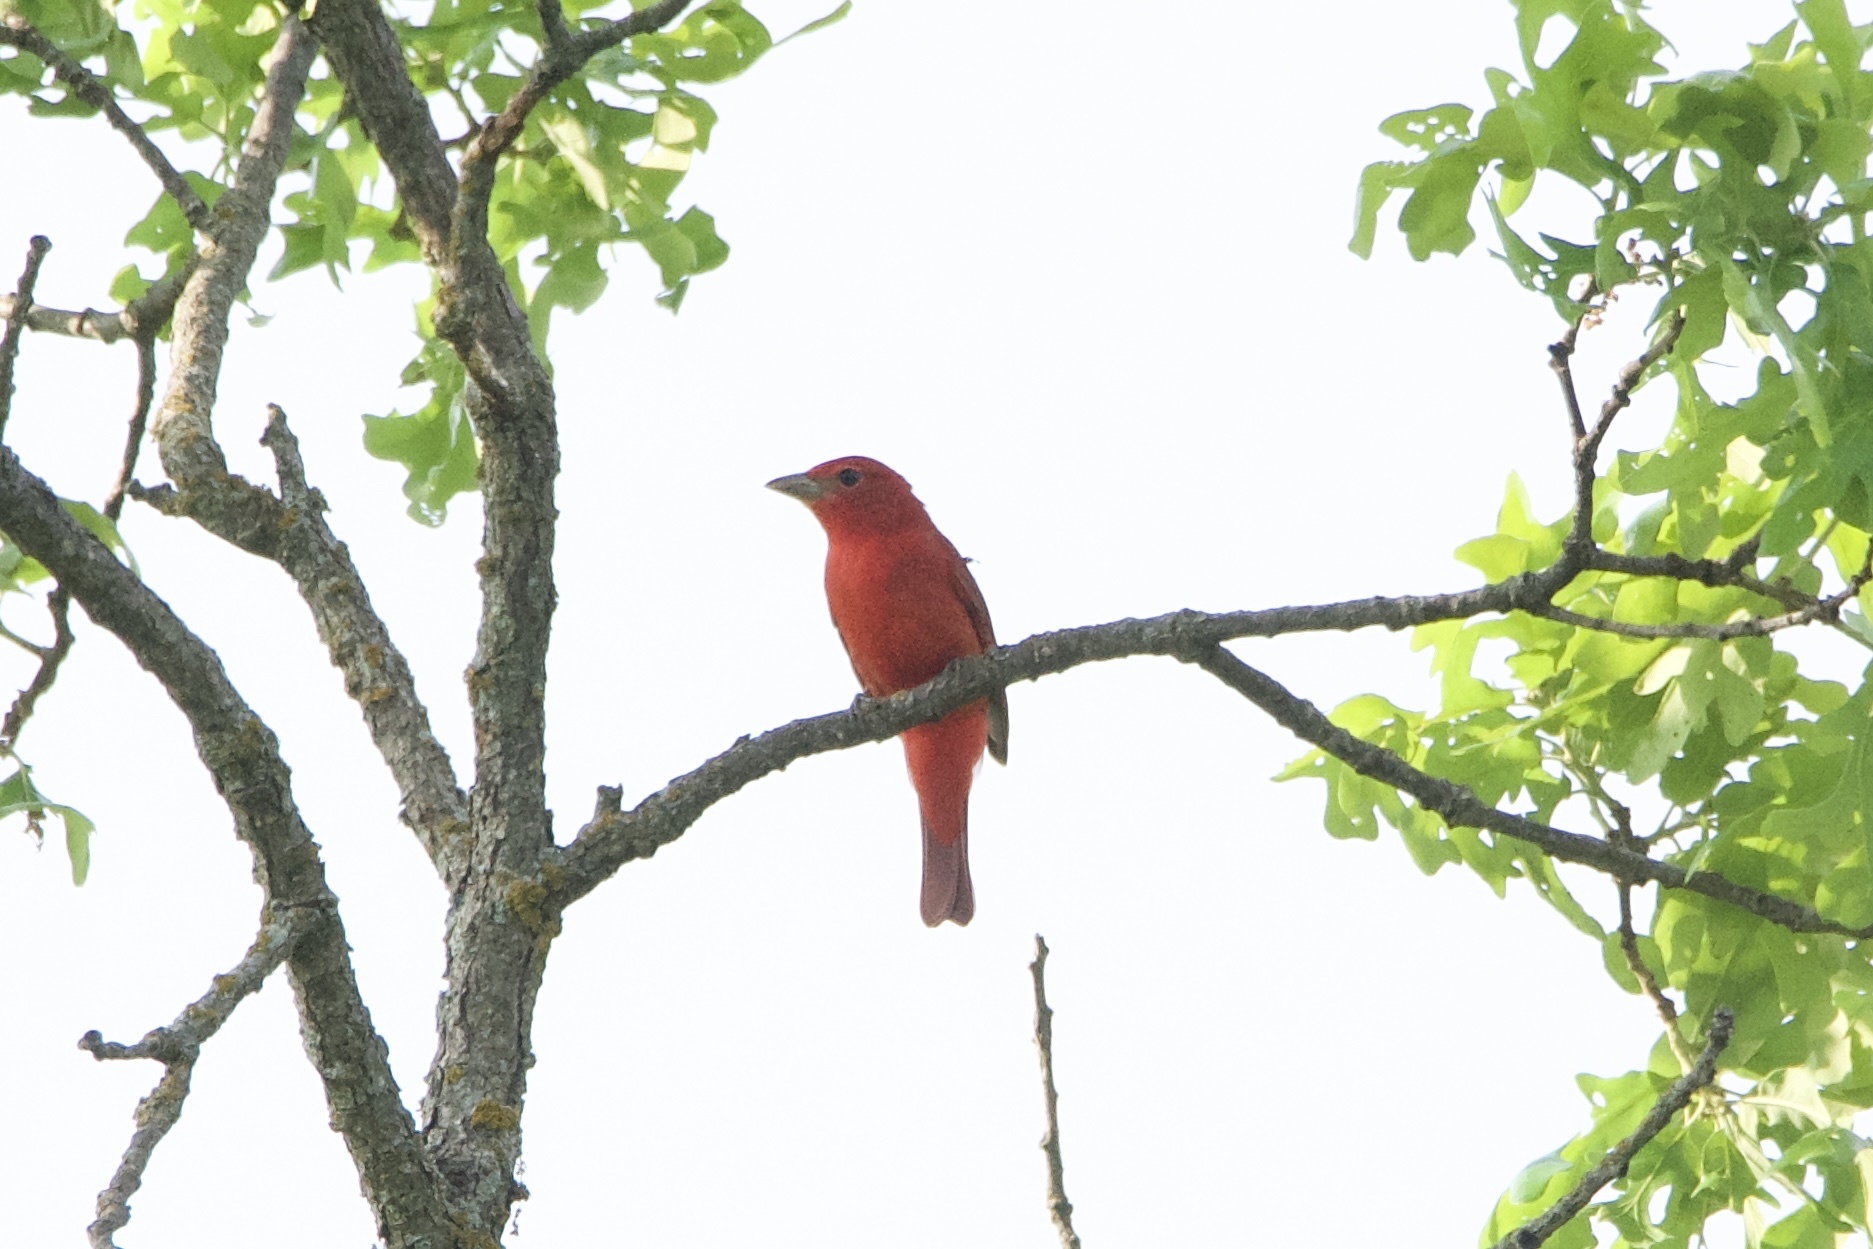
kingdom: Animalia
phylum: Chordata
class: Aves
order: Passeriformes
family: Cardinalidae
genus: Piranga
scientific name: Piranga rubra
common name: Summer tanager
